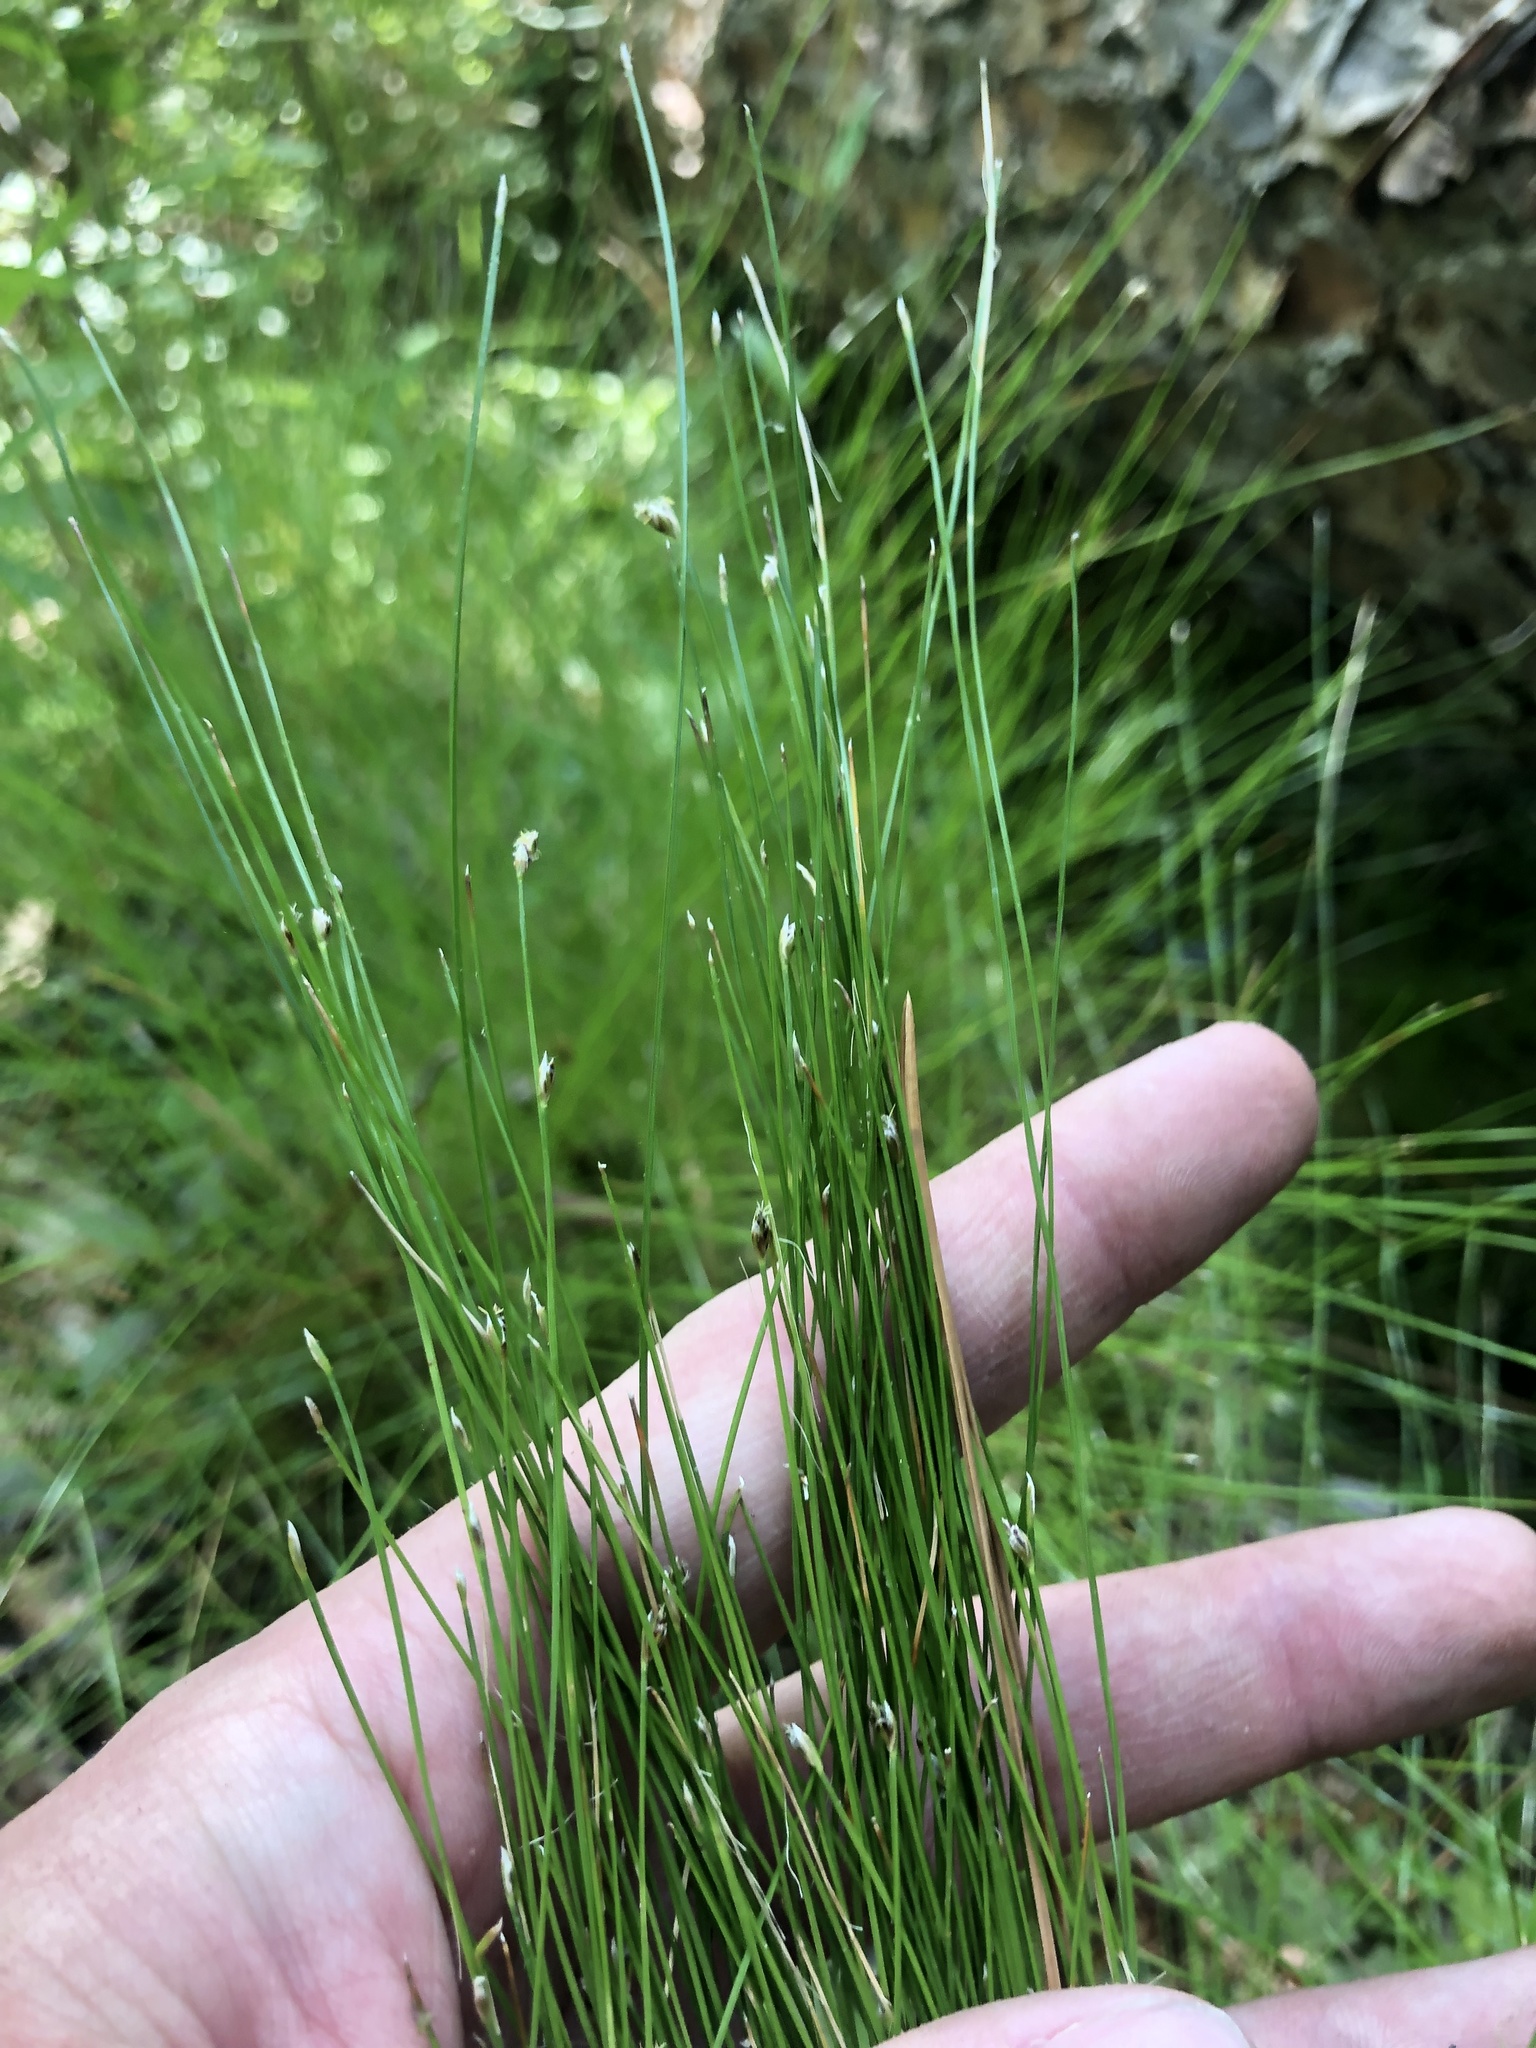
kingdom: Plantae
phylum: Tracheophyta
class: Liliopsida
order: Poales
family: Cyperaceae
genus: Eleocharis
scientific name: Eleocharis tortilis
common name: Twisted spike sedge
